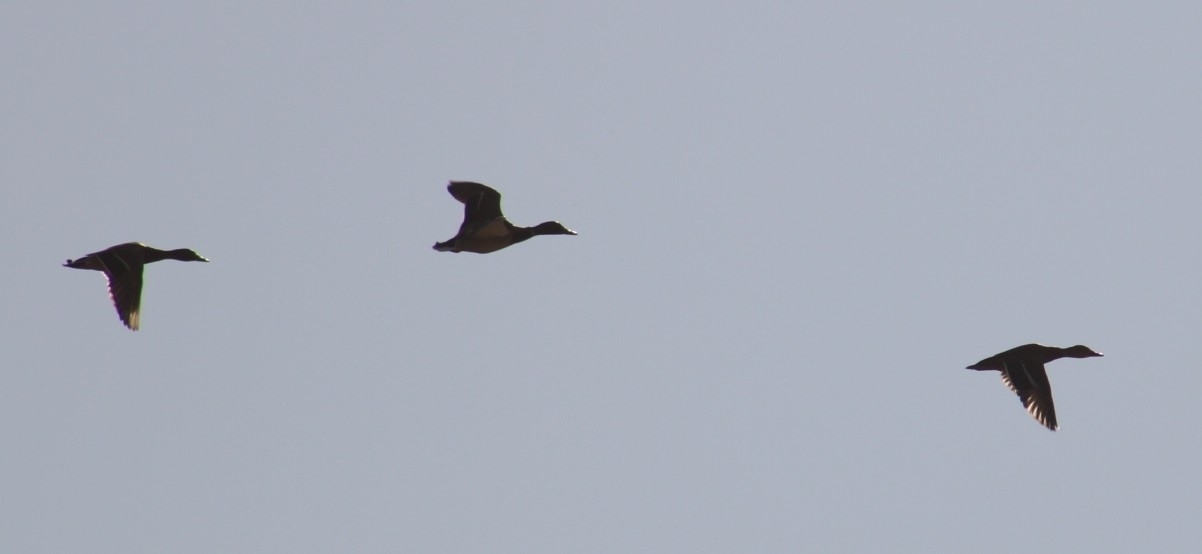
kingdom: Animalia
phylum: Chordata
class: Aves
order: Anseriformes
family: Anatidae
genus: Anas
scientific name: Anas platyrhynchos
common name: Mallard
